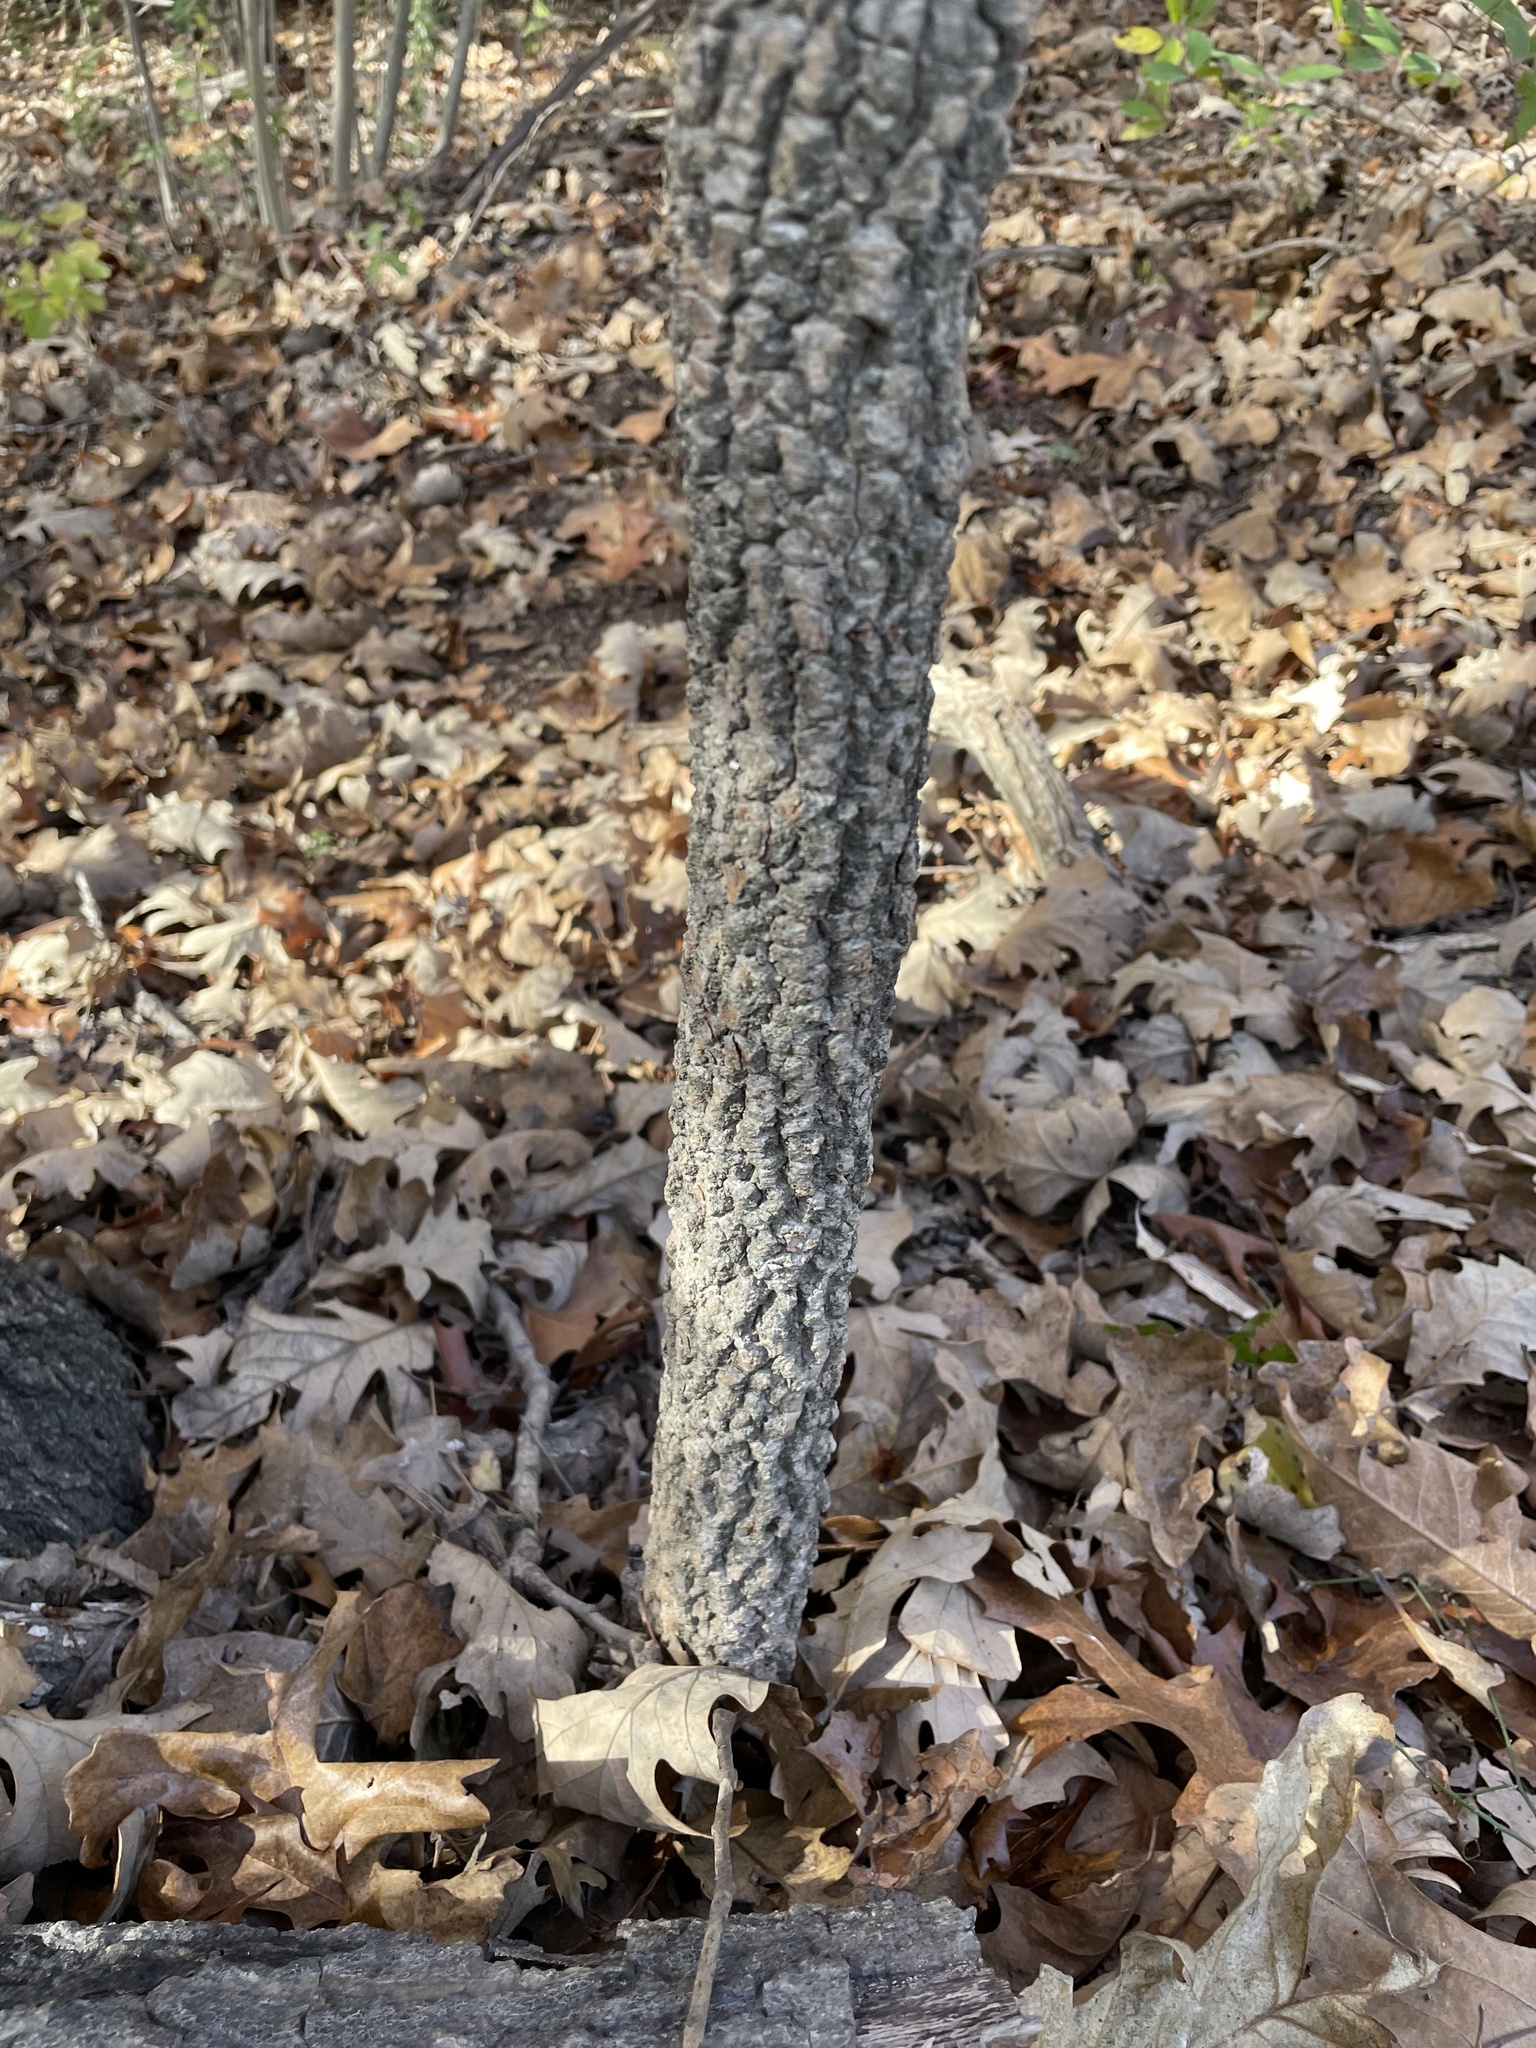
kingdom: Plantae
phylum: Tracheophyta
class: Magnoliopsida
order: Dipsacales
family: Viburnaceae
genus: Viburnum
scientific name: Viburnum rufidulum
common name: Blue haw
